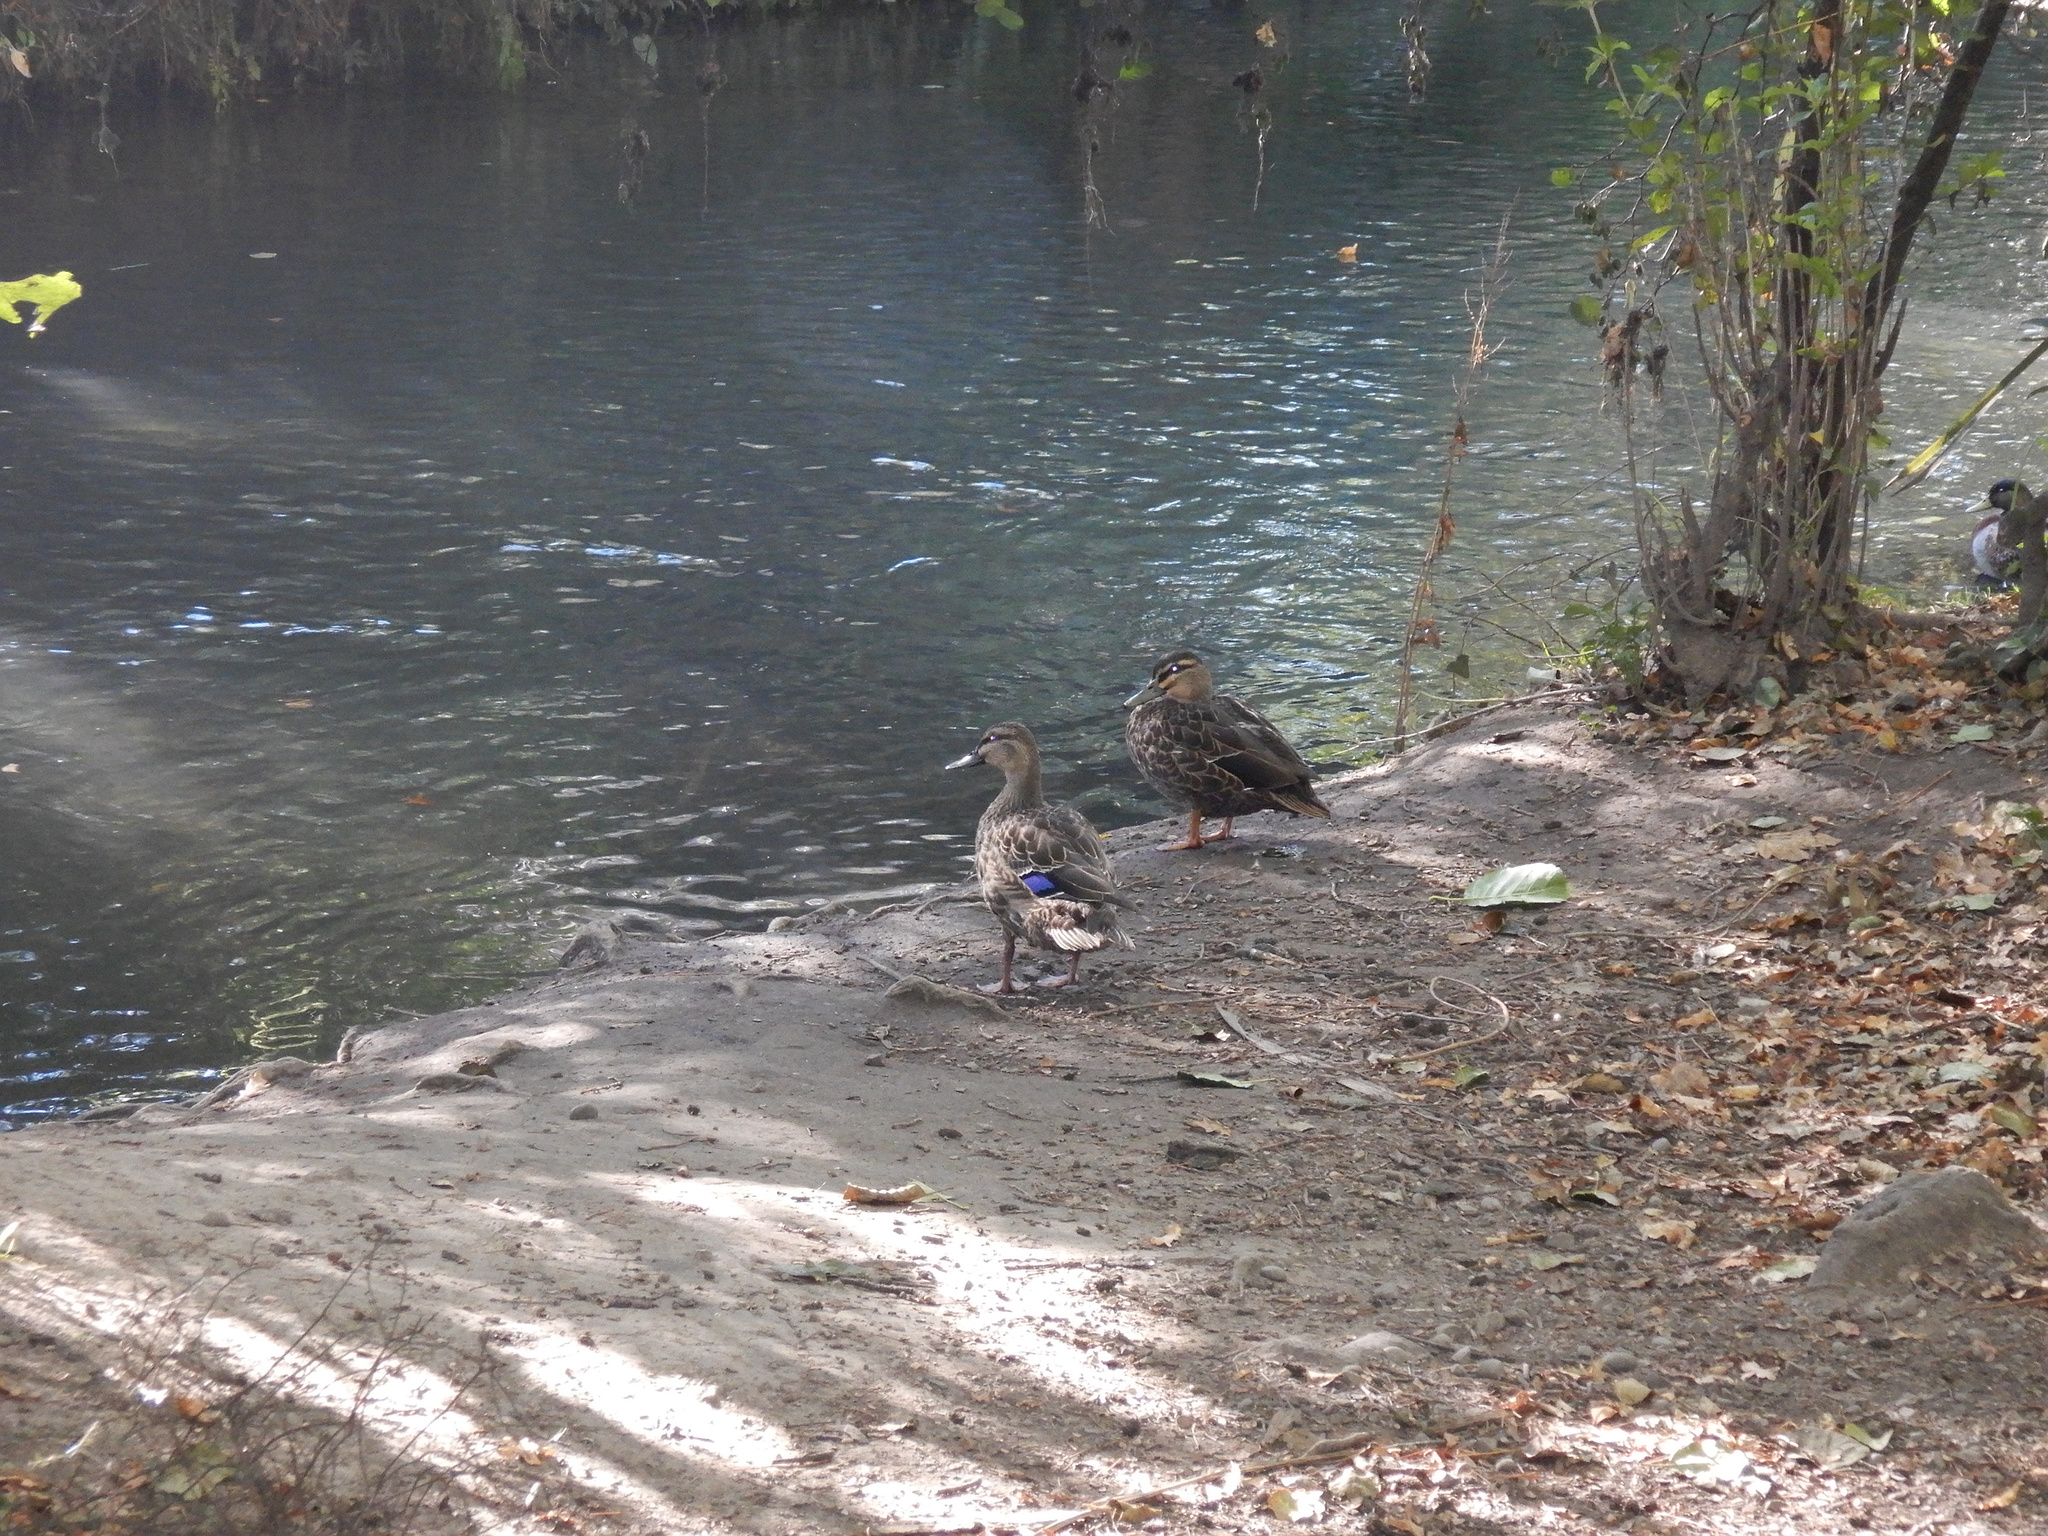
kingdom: Animalia
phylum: Chordata
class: Aves
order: Anseriformes
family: Anatidae
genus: Anas
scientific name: Anas
